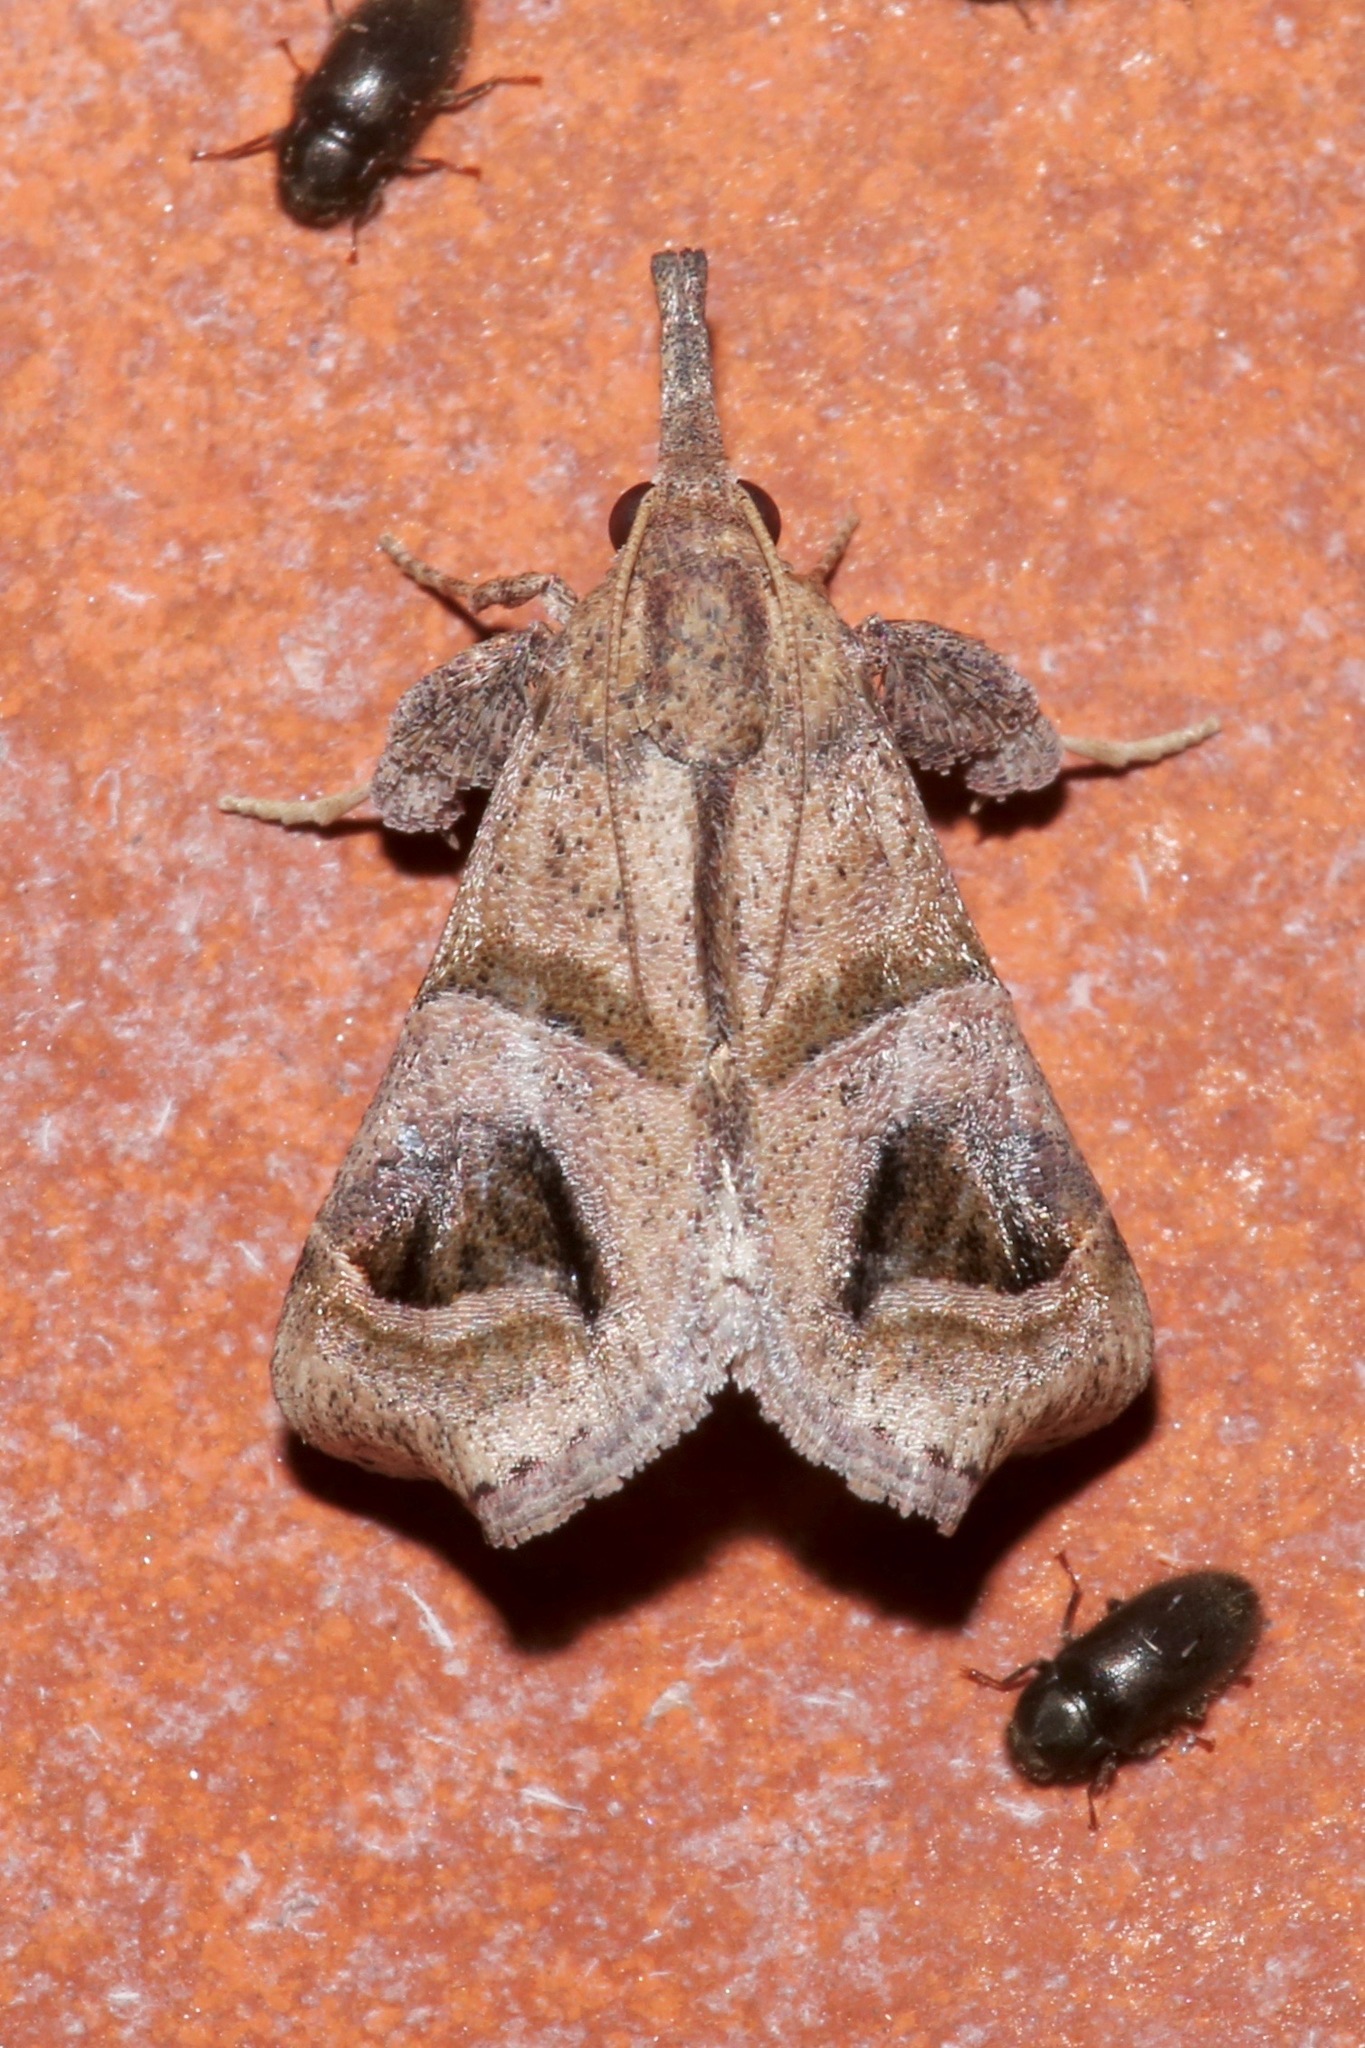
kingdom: Animalia
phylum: Arthropoda
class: Insecta
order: Lepidoptera
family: Pyralidae
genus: Bonchis
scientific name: Bonchis munitalis
